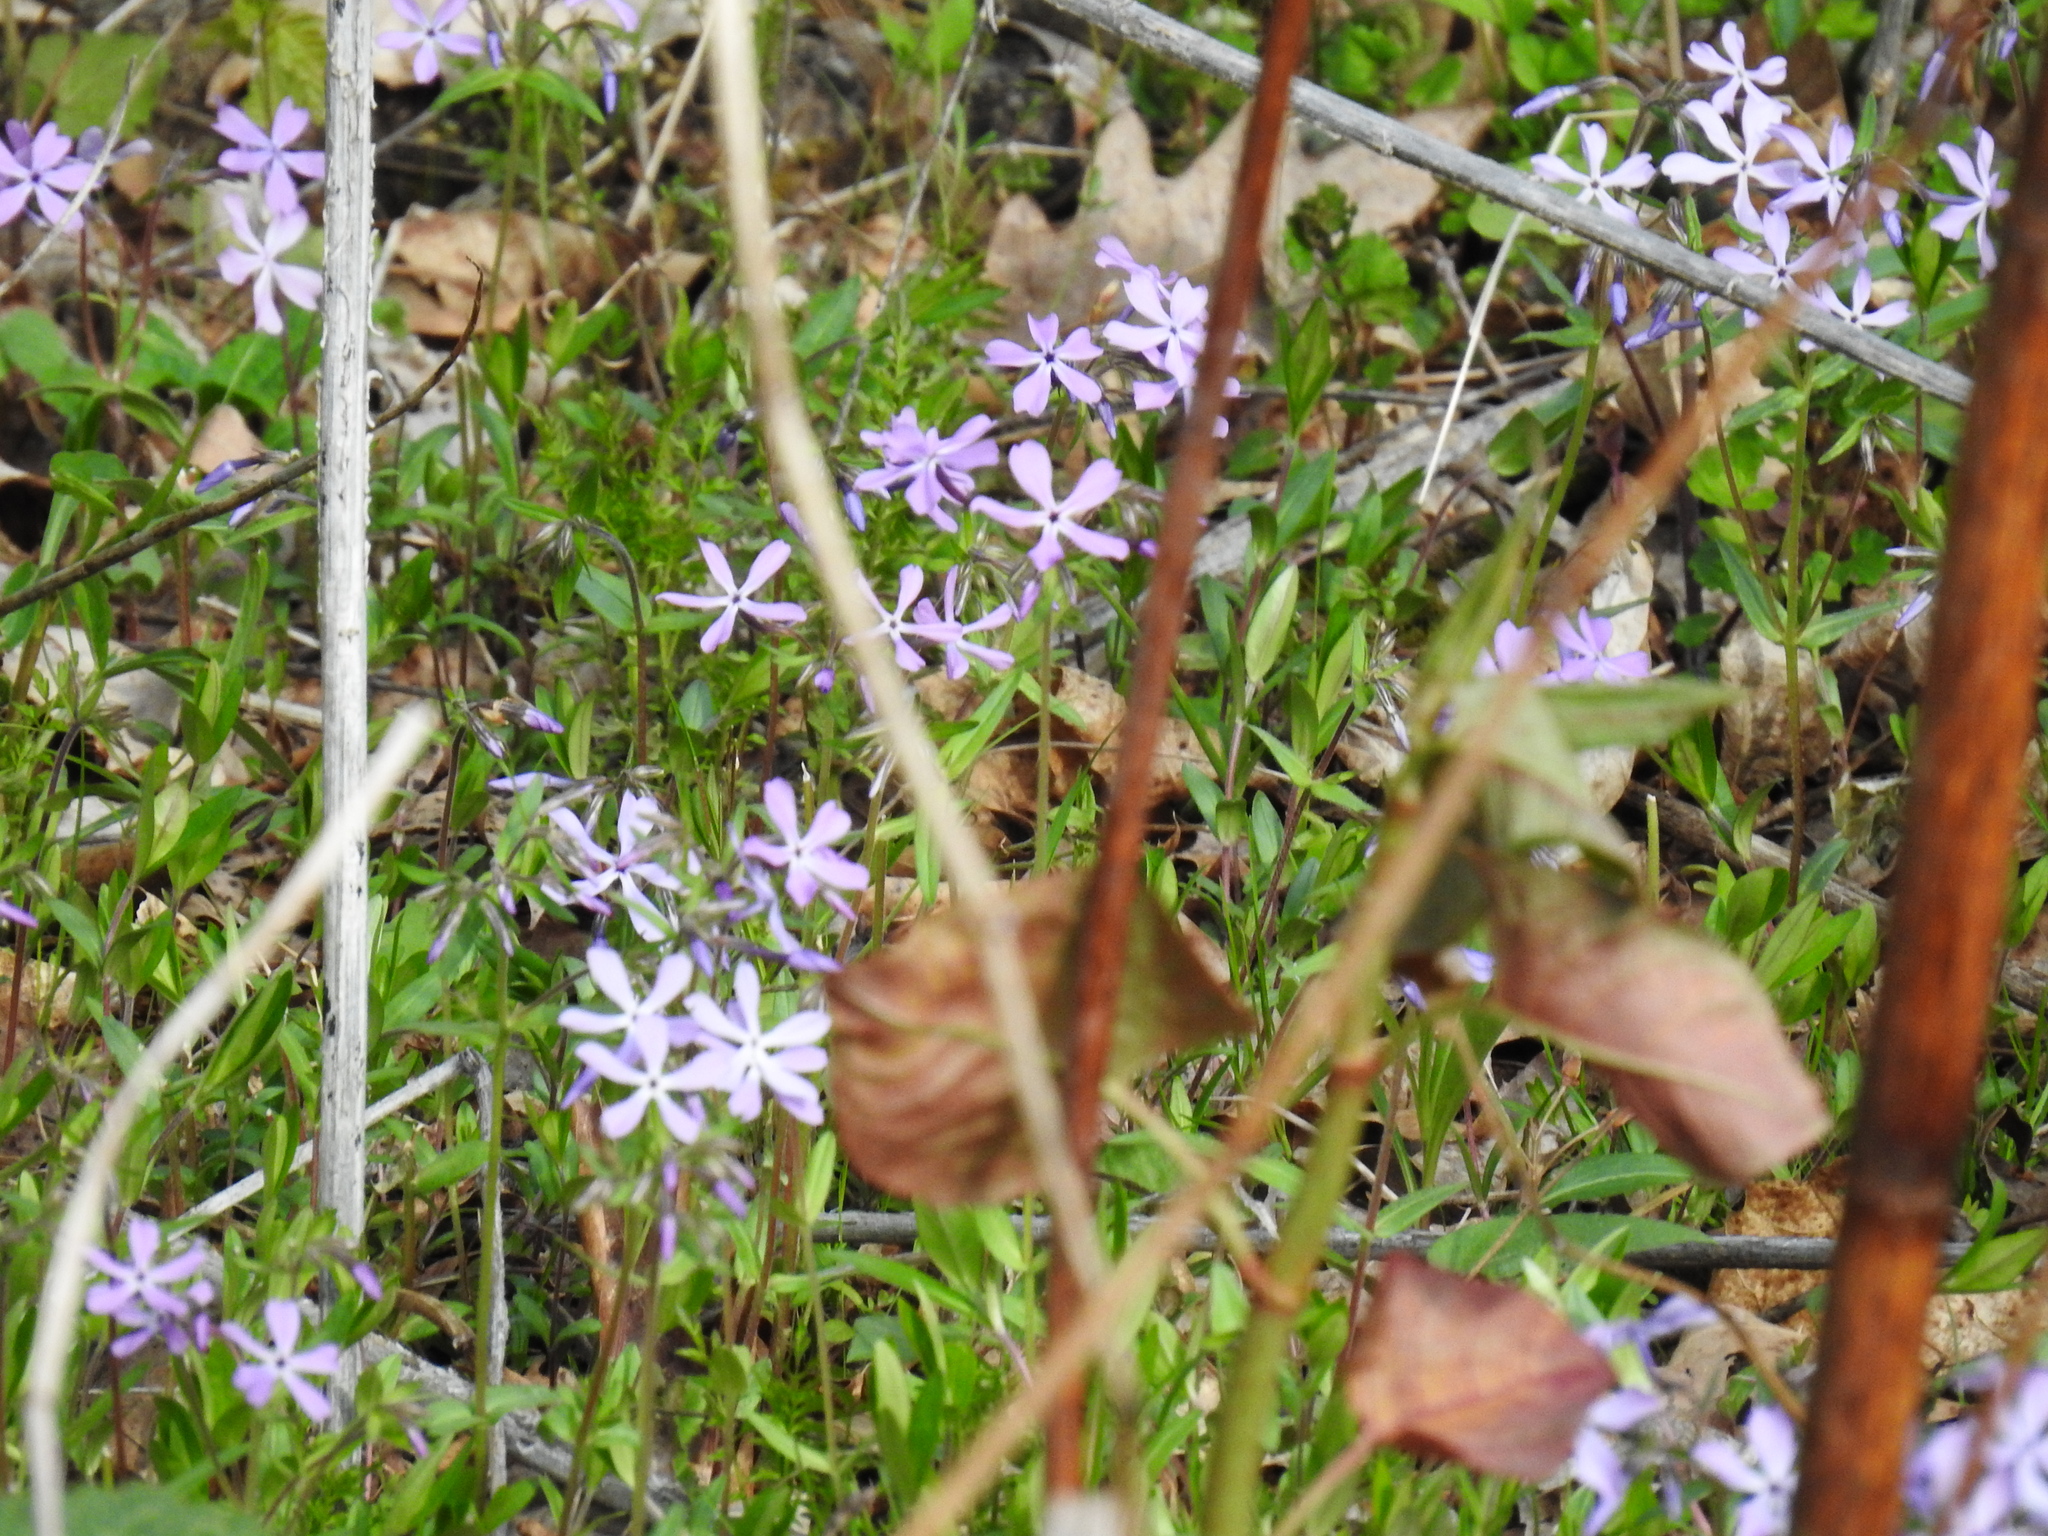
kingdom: Plantae
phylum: Tracheophyta
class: Magnoliopsida
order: Ericales
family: Polemoniaceae
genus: Phlox
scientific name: Phlox divaricata
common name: Blue phlox
